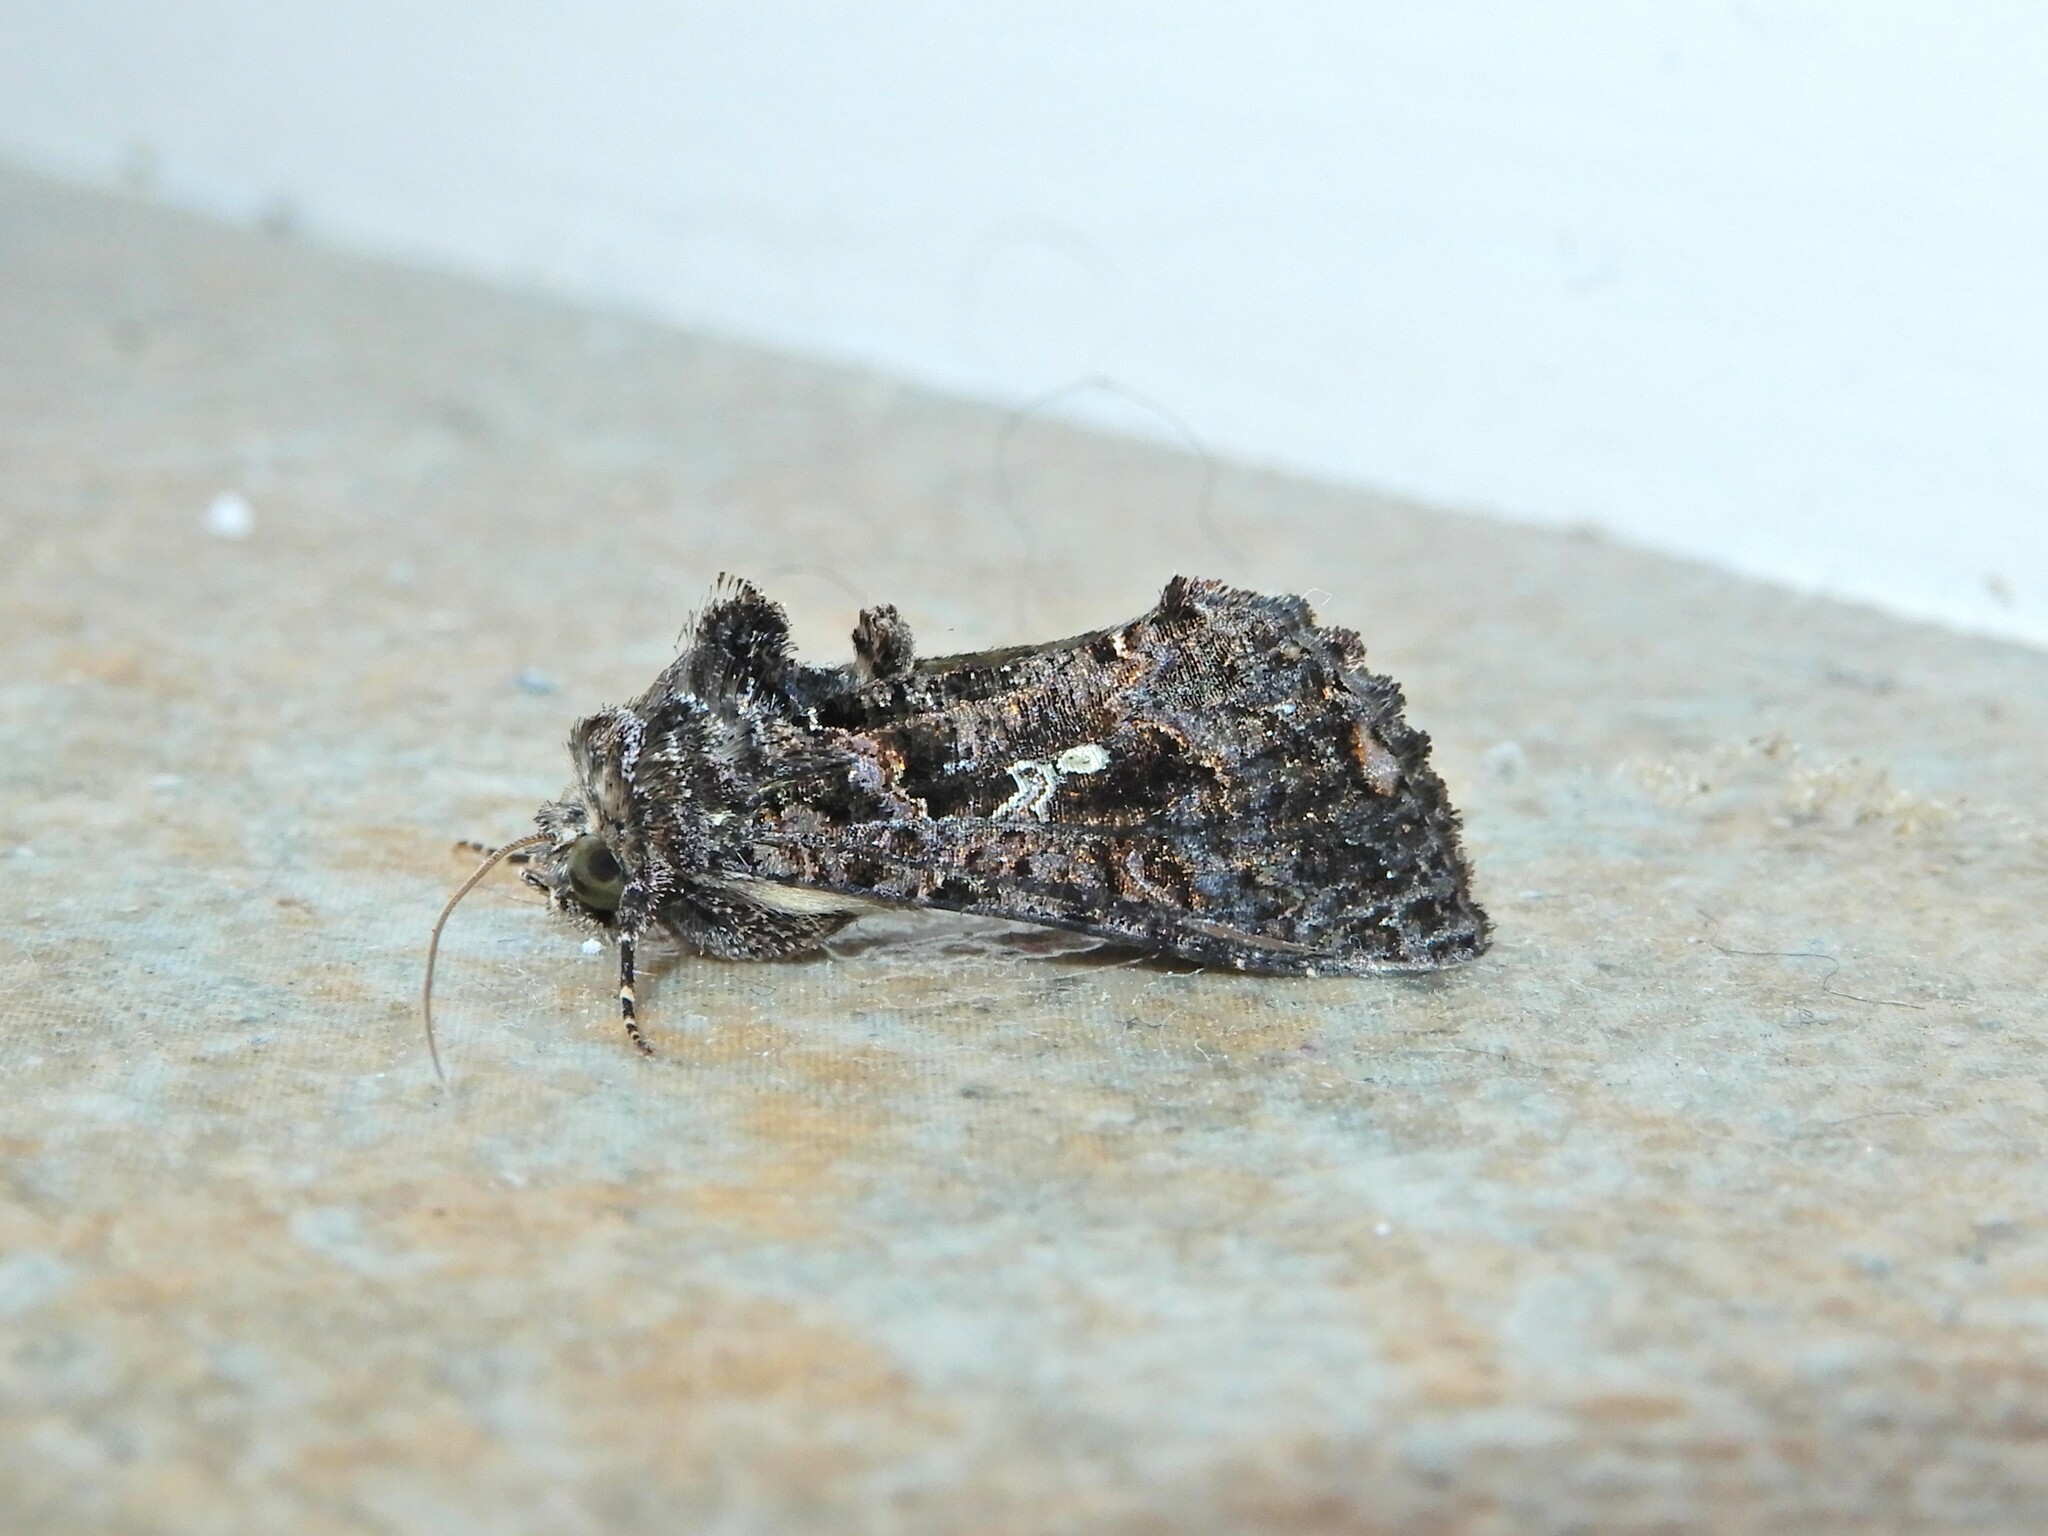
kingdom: Animalia
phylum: Arthropoda
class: Insecta
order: Lepidoptera
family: Noctuidae
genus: Ctenoplusia
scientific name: Ctenoplusia limbirena
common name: Scar bank gem
